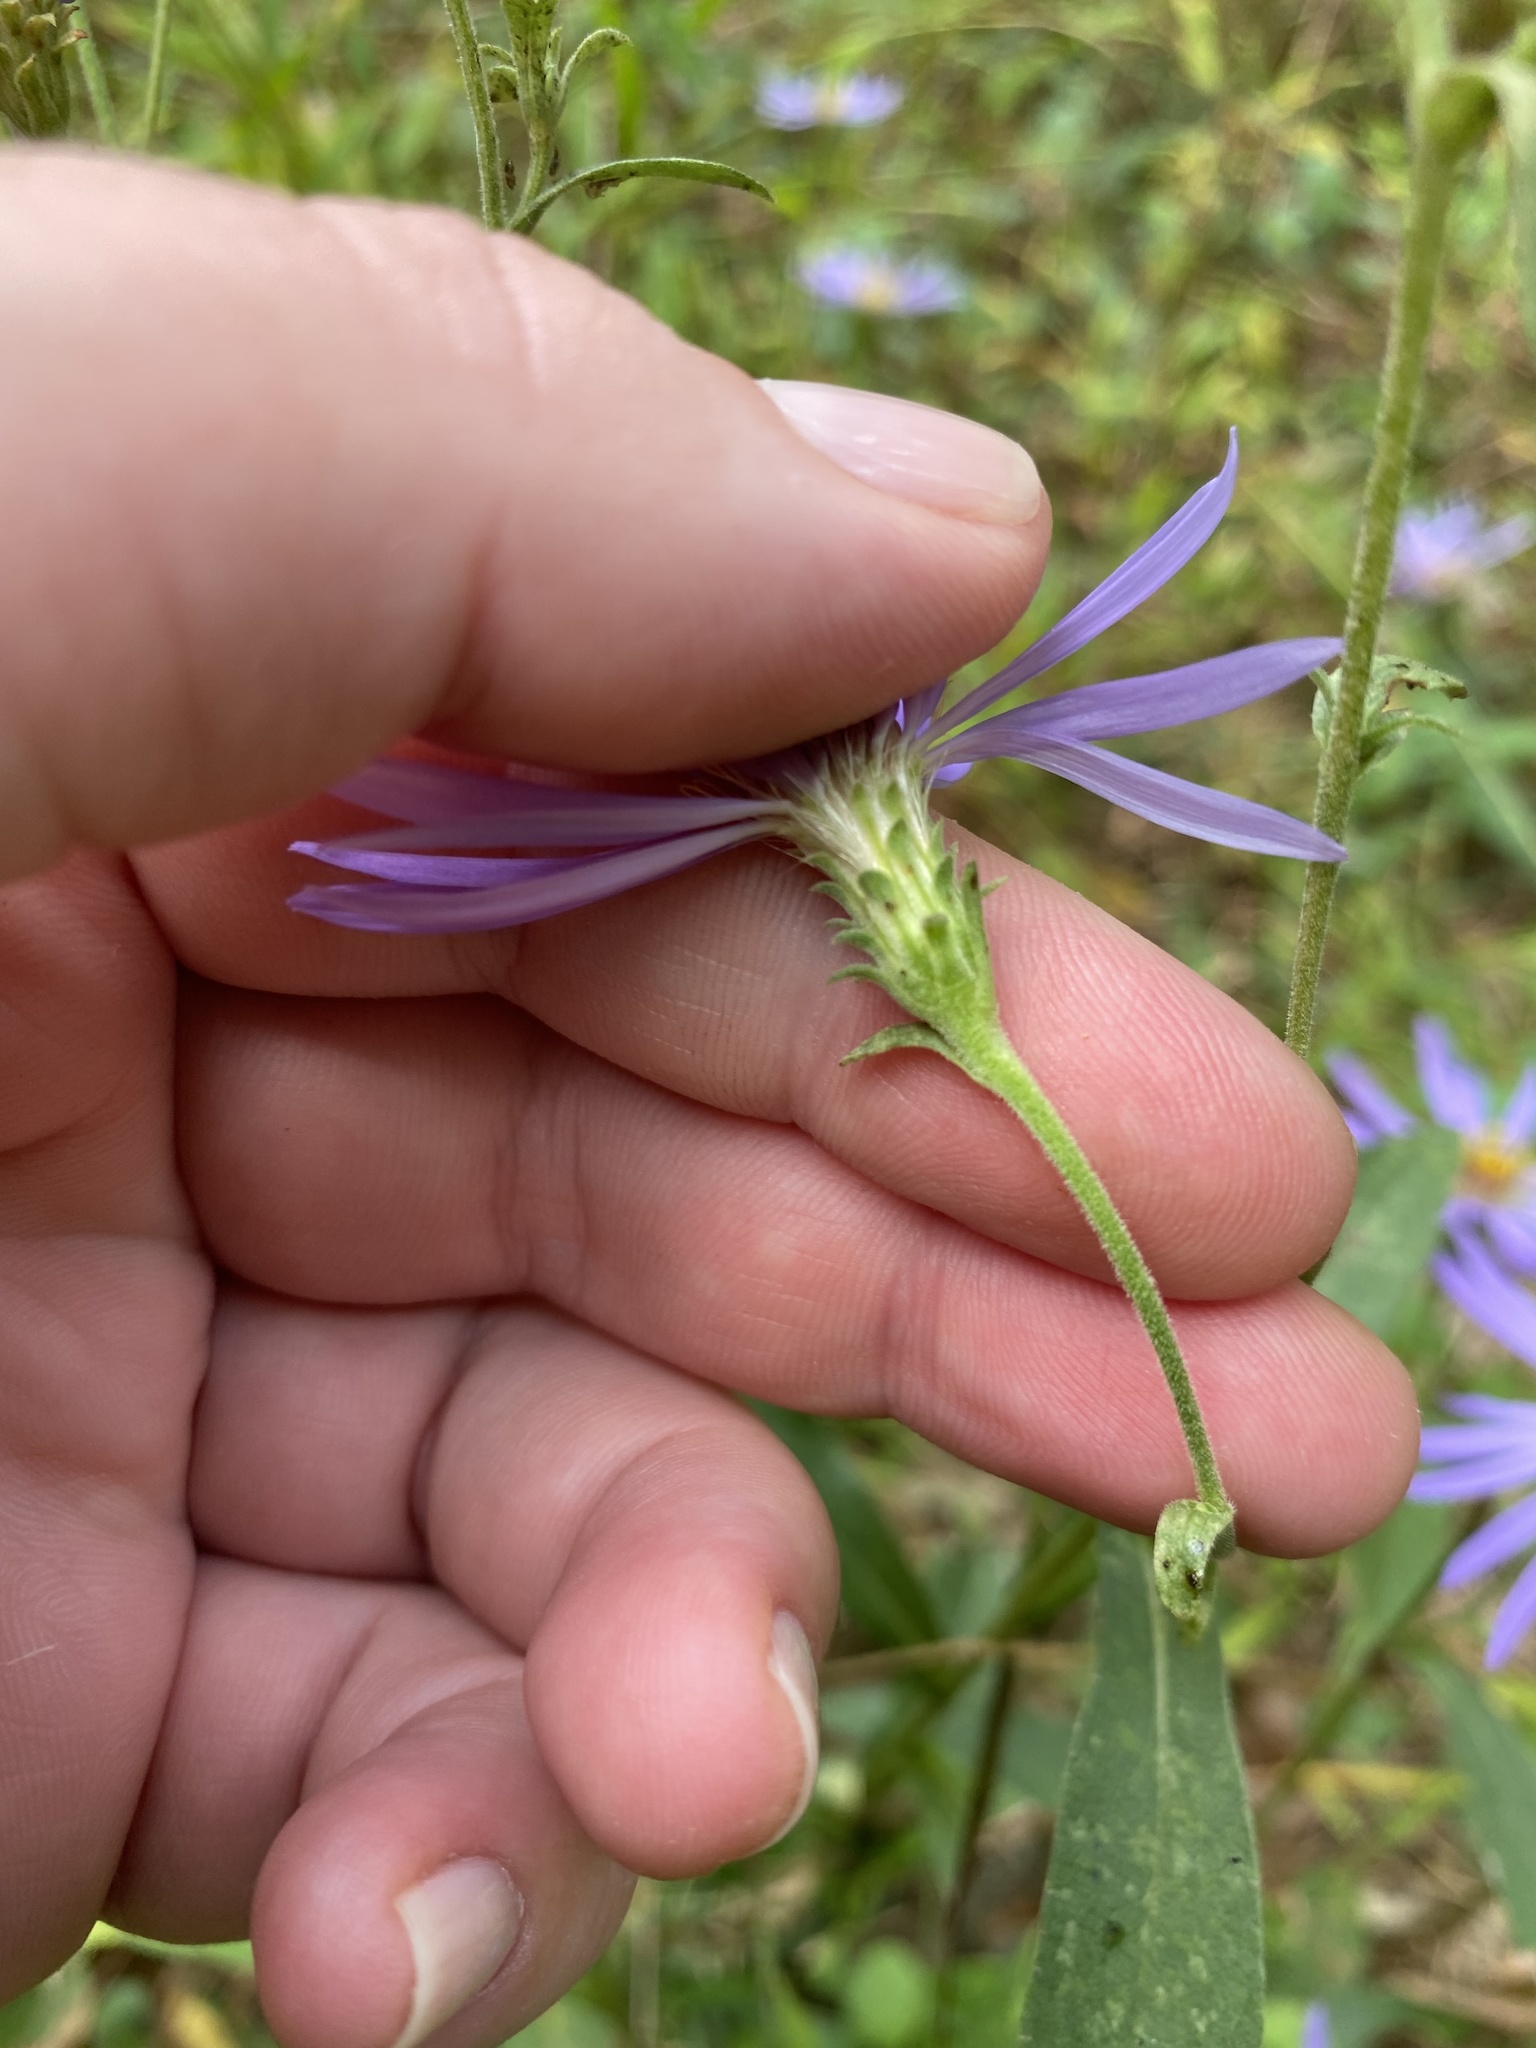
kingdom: Plantae
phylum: Tracheophyta
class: Magnoliopsida
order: Asterales
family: Asteraceae
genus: Eurybia
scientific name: Eurybia spectabilis
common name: Low showy aster
